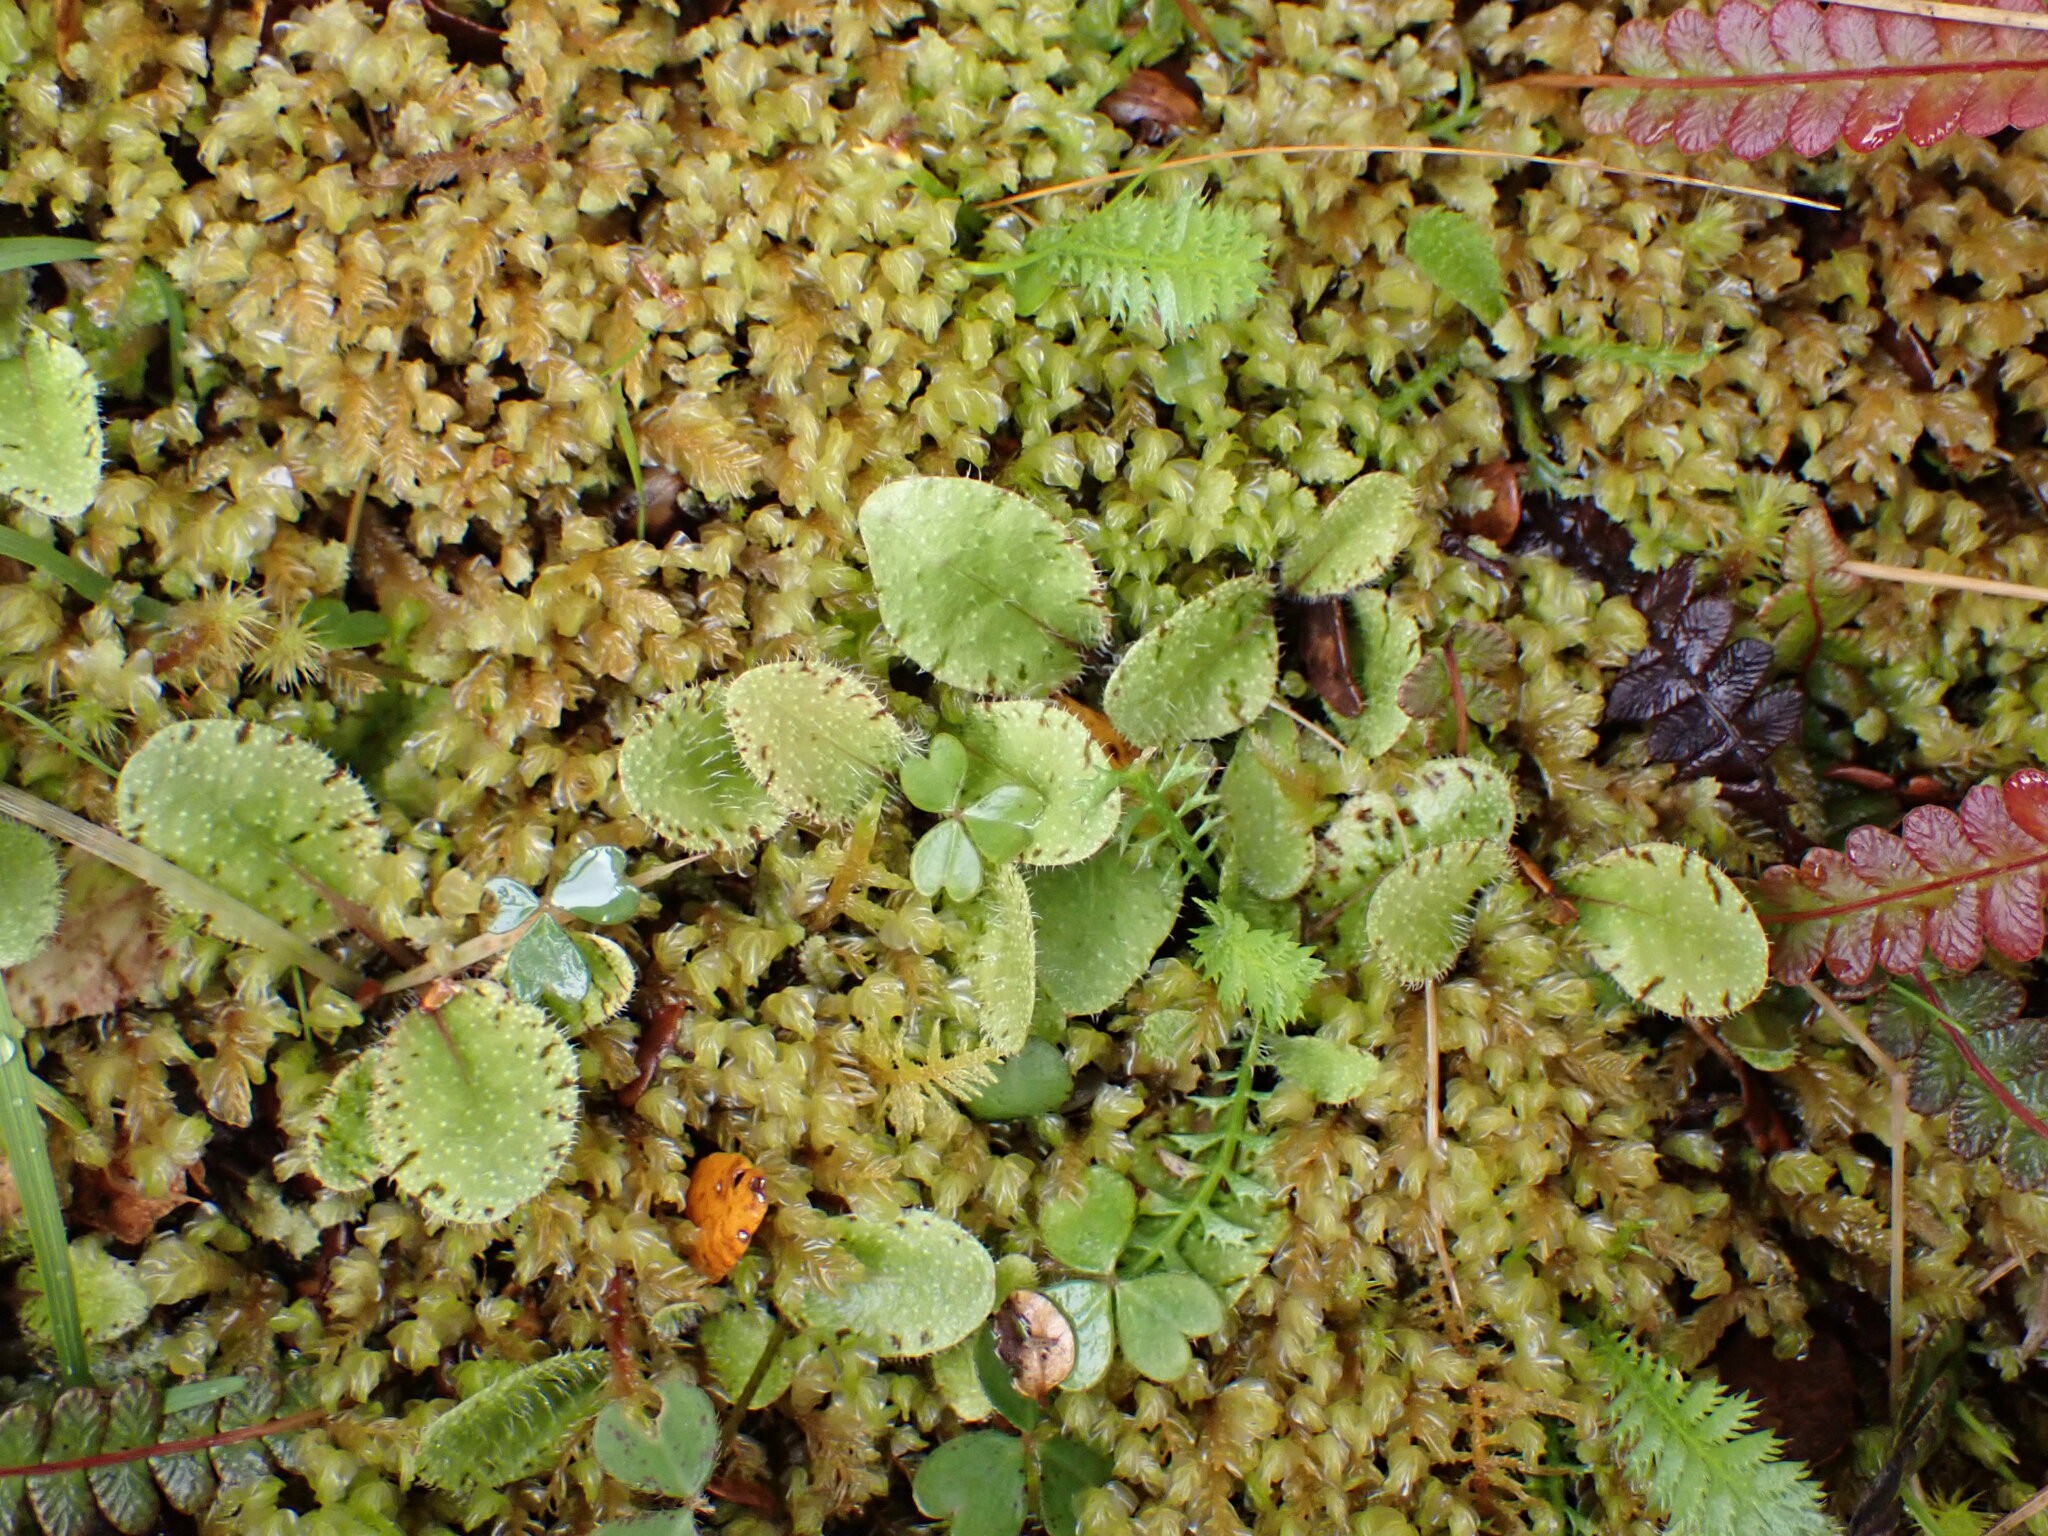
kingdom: Plantae
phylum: Tracheophyta
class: Magnoliopsida
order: Lamiales
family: Mazaceae
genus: Mazus
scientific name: Mazus radicans
